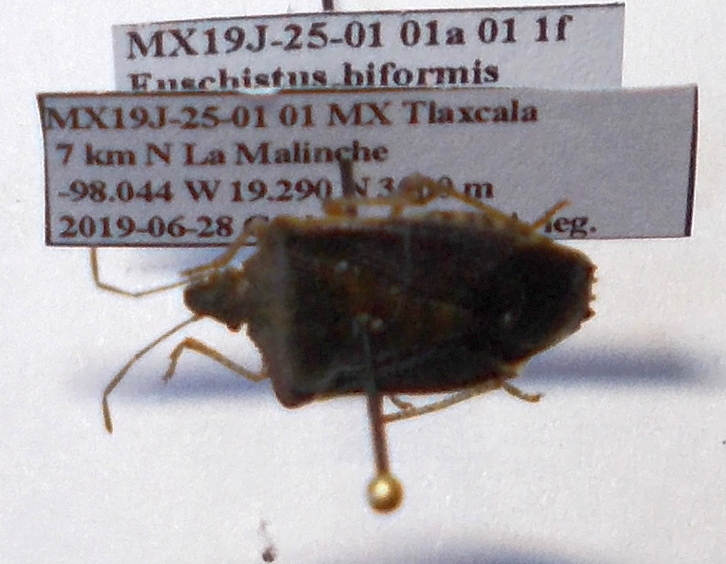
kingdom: Animalia
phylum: Arthropoda
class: Insecta
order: Hemiptera
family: Pentatomidae
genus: Euschistus
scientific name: Euschistus biformis
